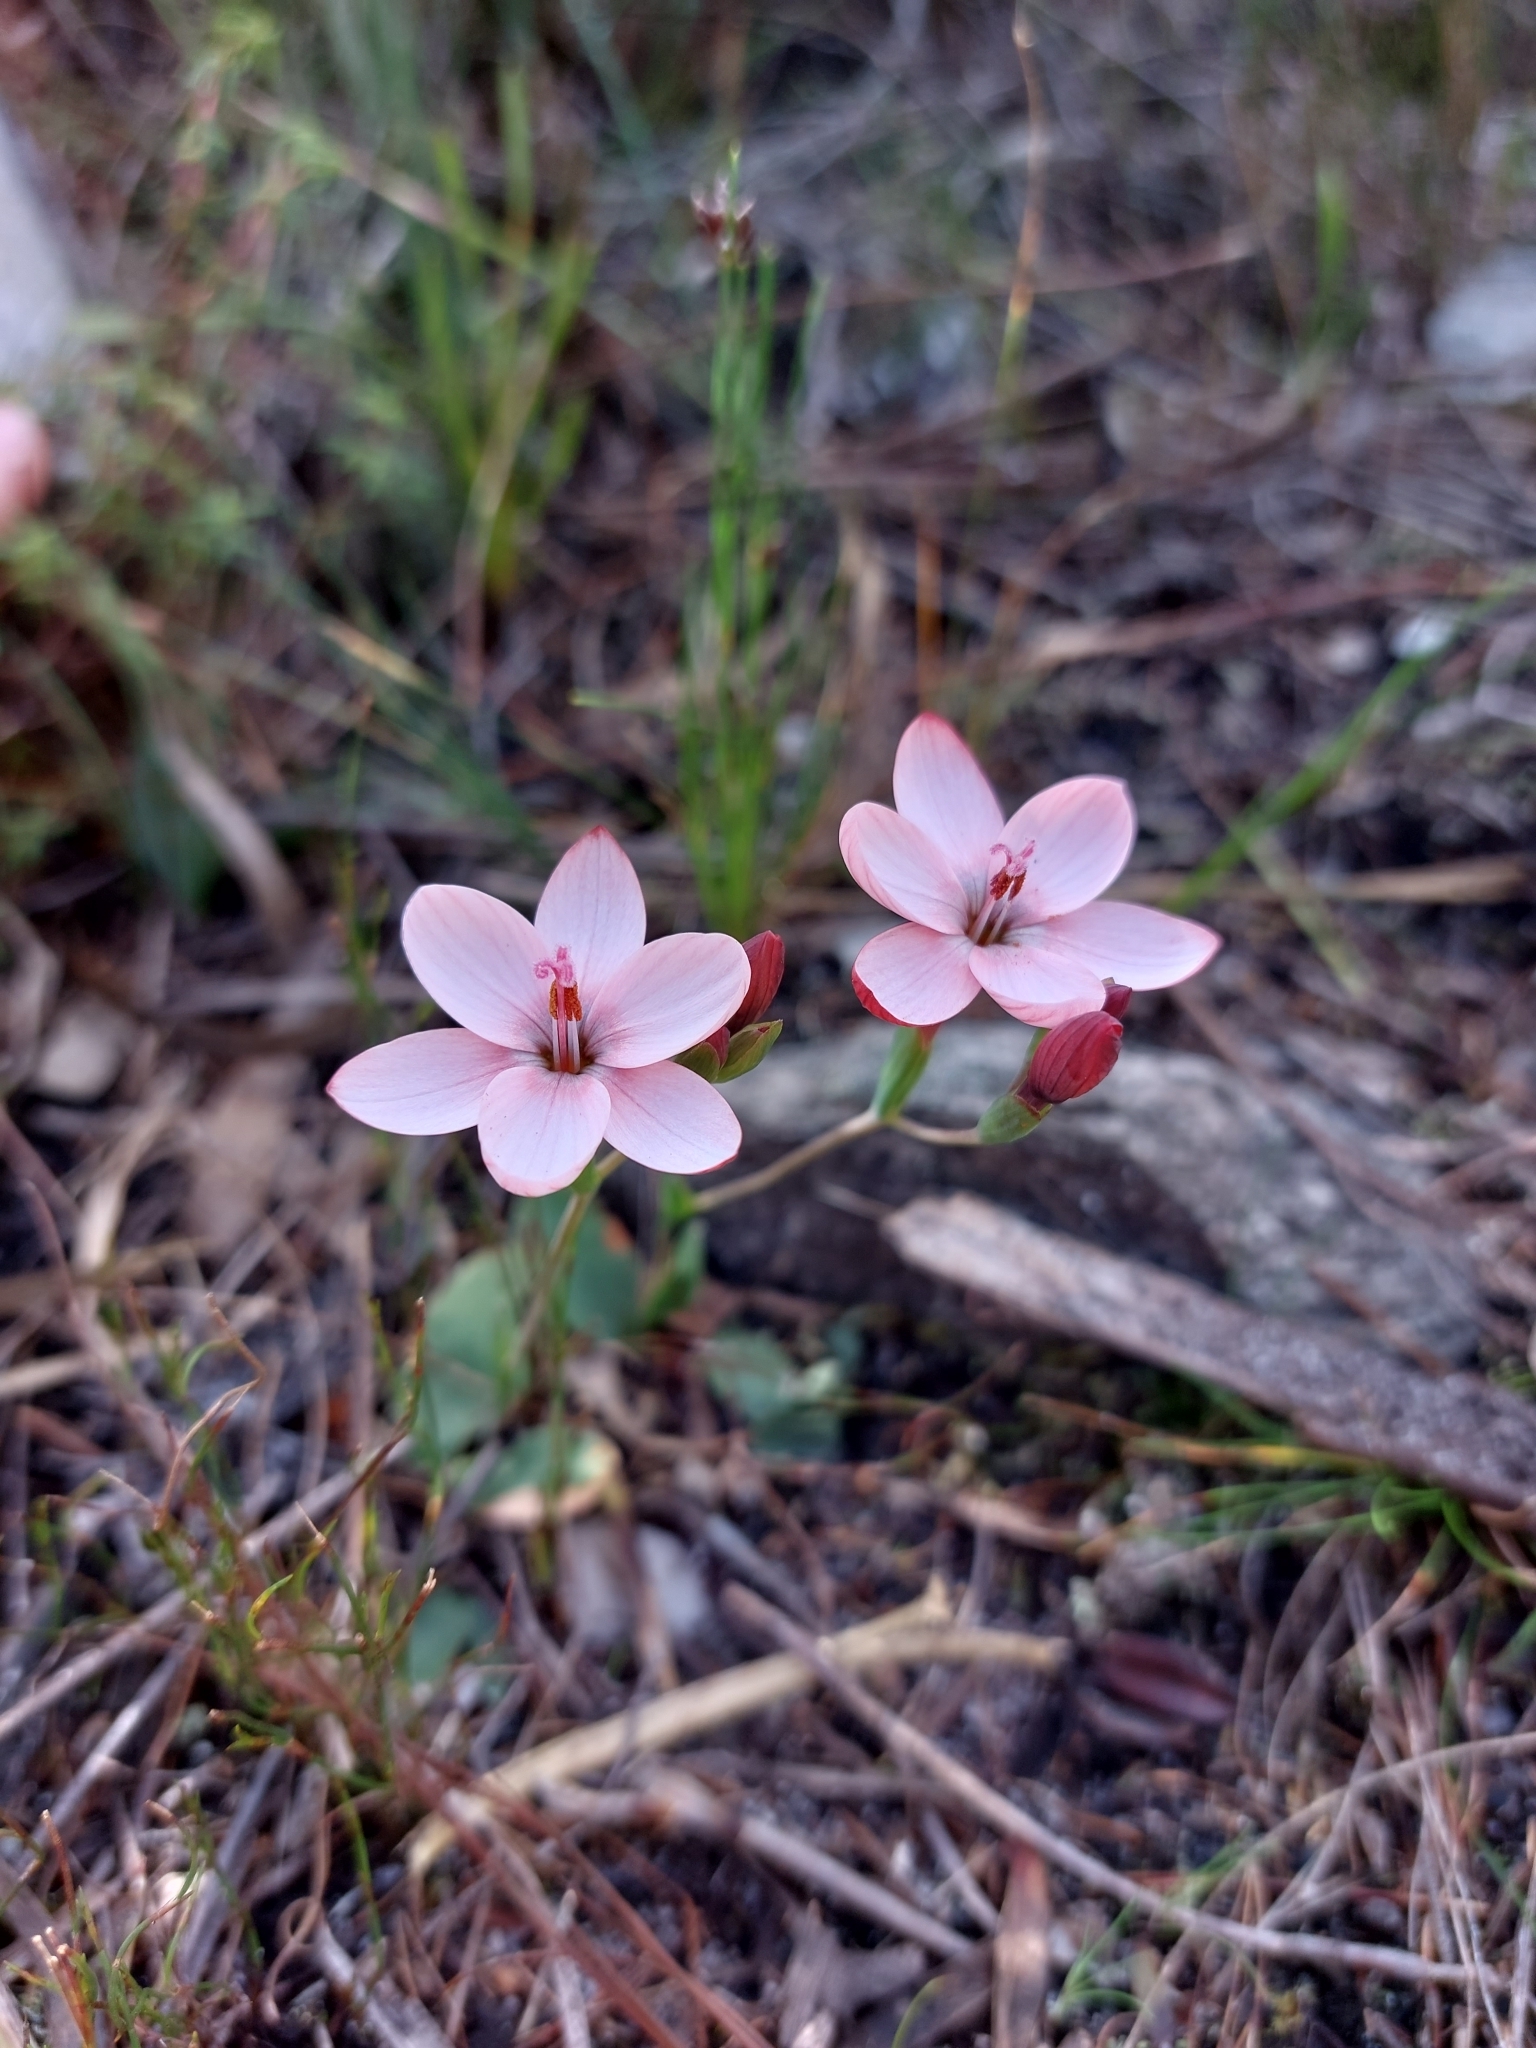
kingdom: Plantae
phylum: Tracheophyta
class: Liliopsida
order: Asparagales
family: Iridaceae
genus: Geissorhiza
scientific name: Geissorhiza ovata
